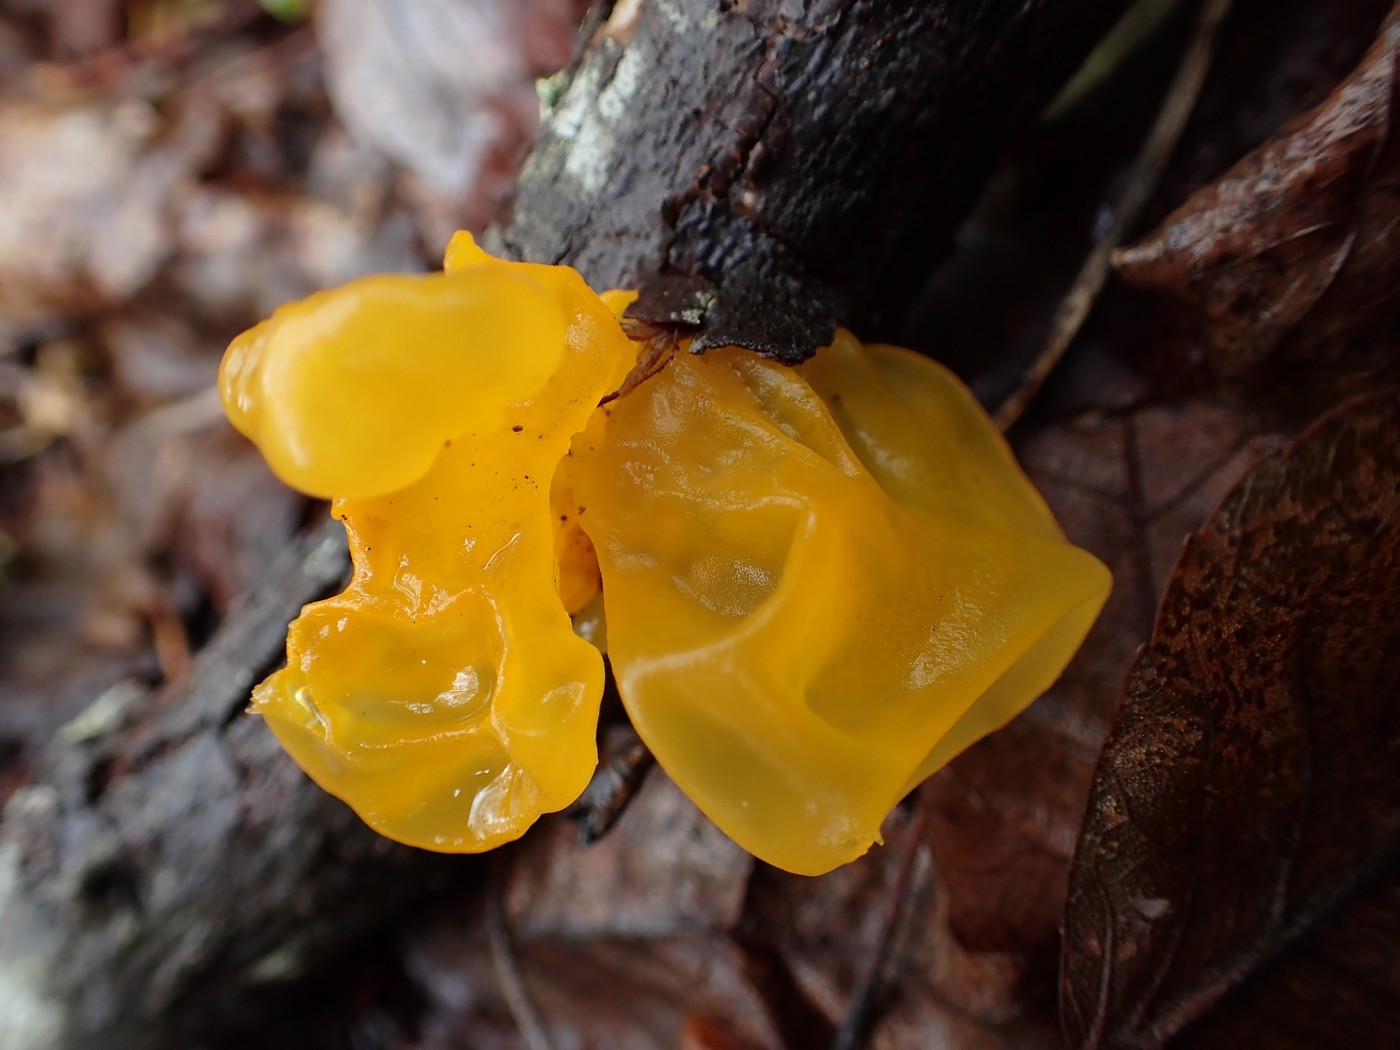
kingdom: Fungi
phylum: Basidiomycota
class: Tremellomycetes
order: Tremellales
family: Tremellaceae
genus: Tremella
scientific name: Tremella mesenterica
